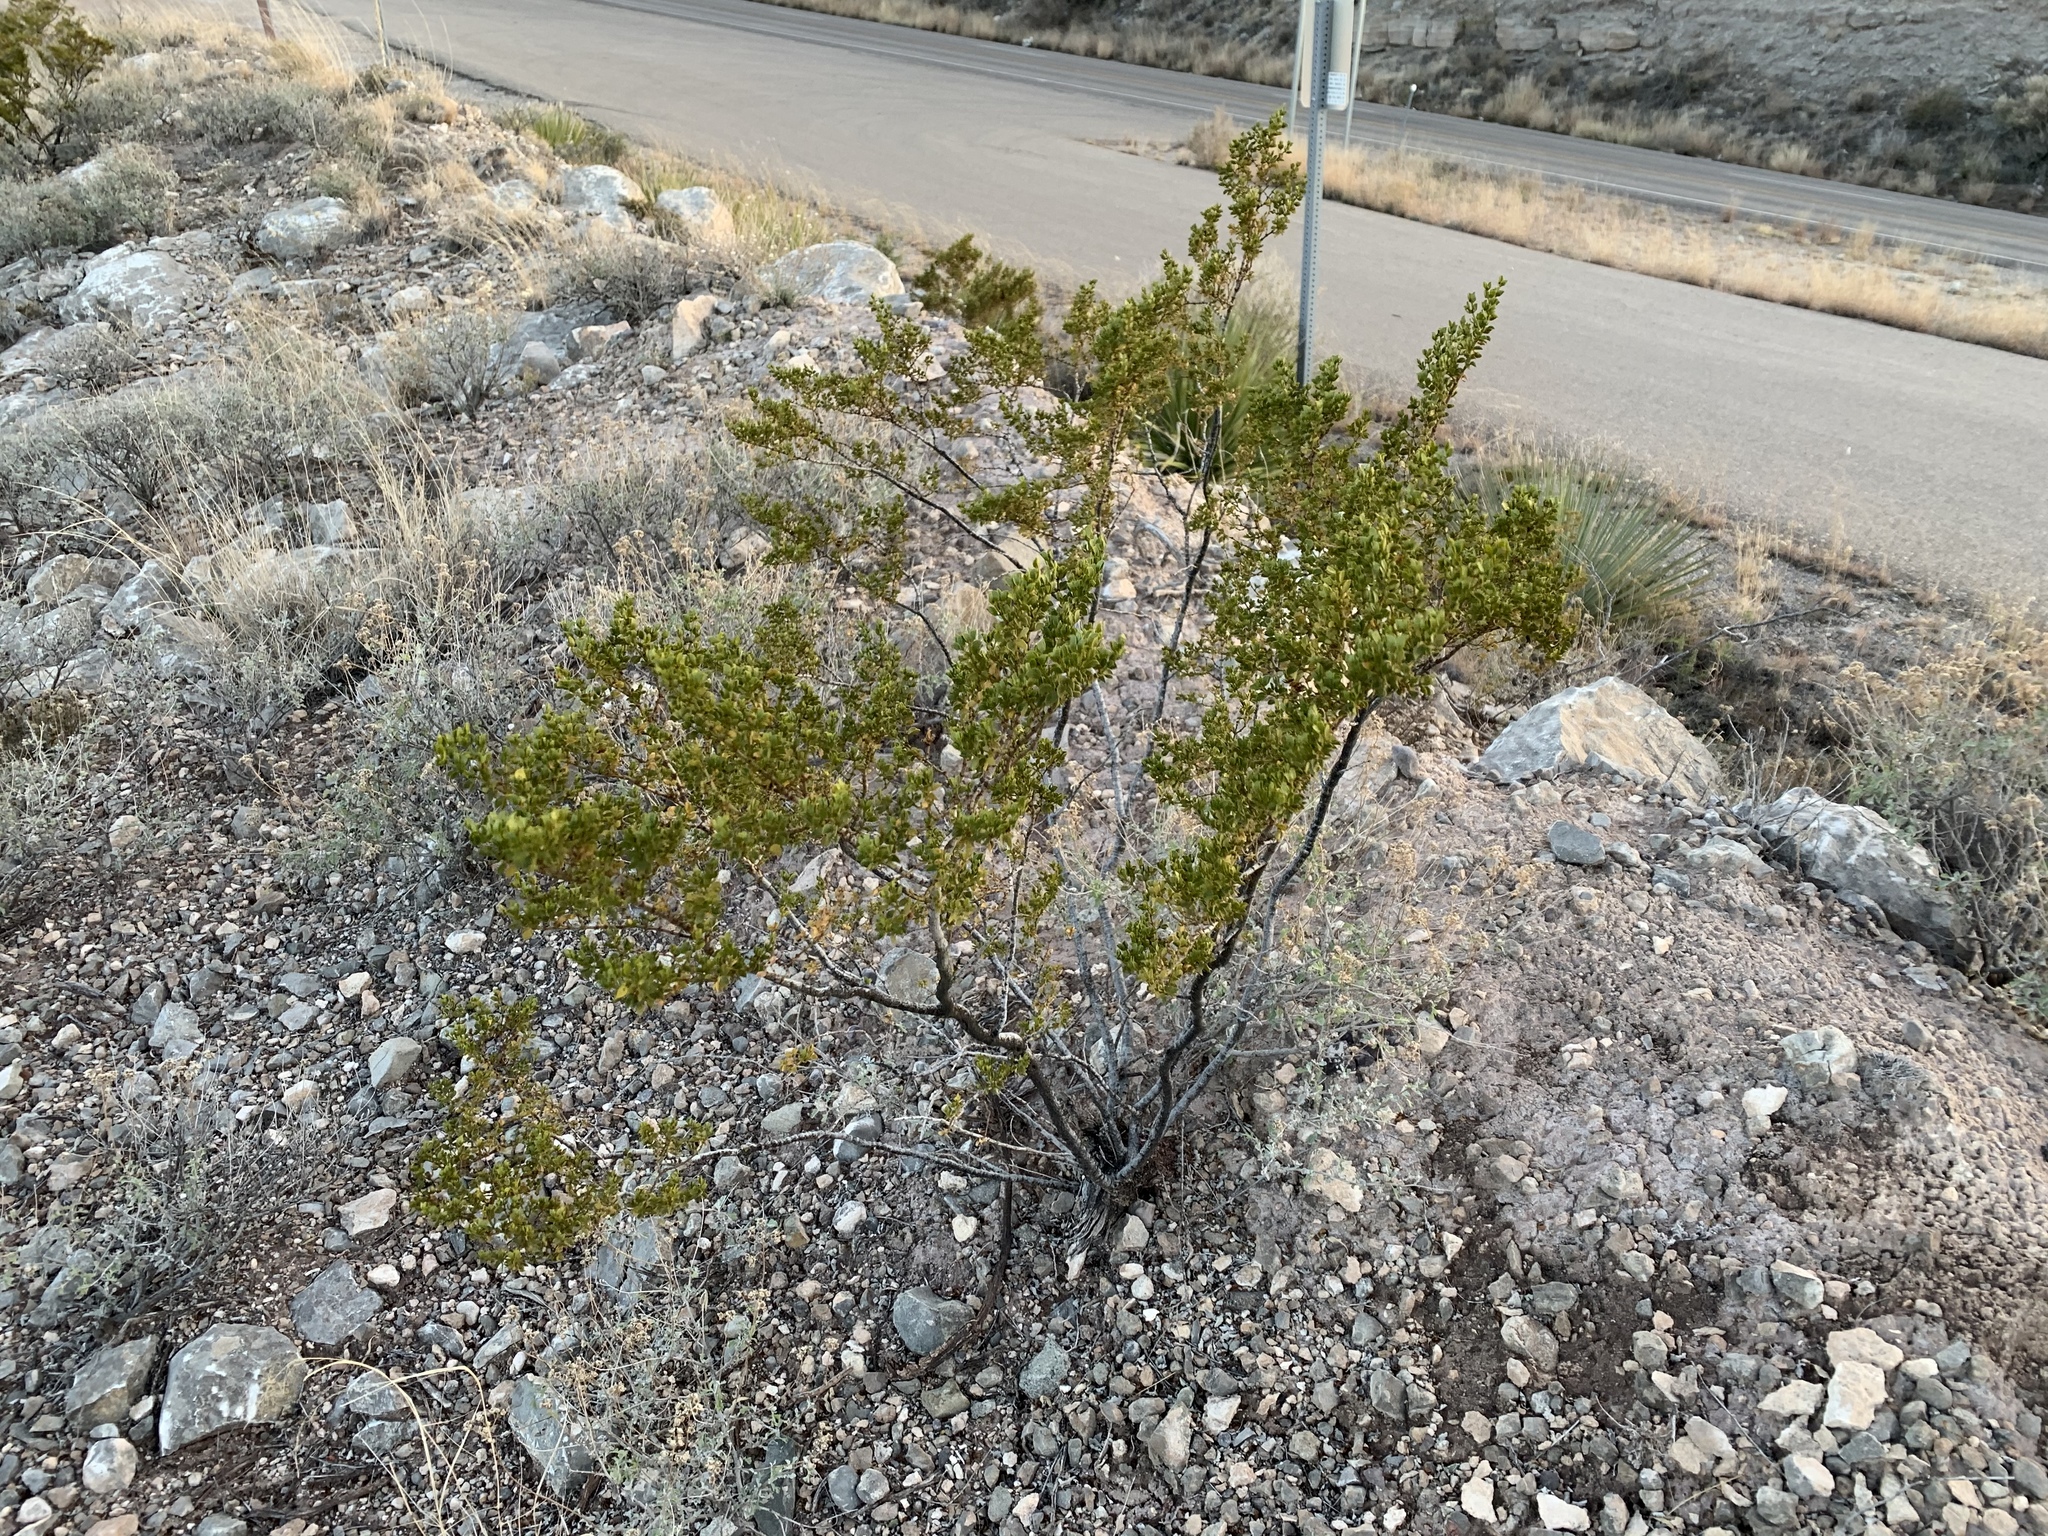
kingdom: Plantae
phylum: Tracheophyta
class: Magnoliopsida
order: Zygophyllales
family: Zygophyllaceae
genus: Larrea
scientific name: Larrea tridentata
